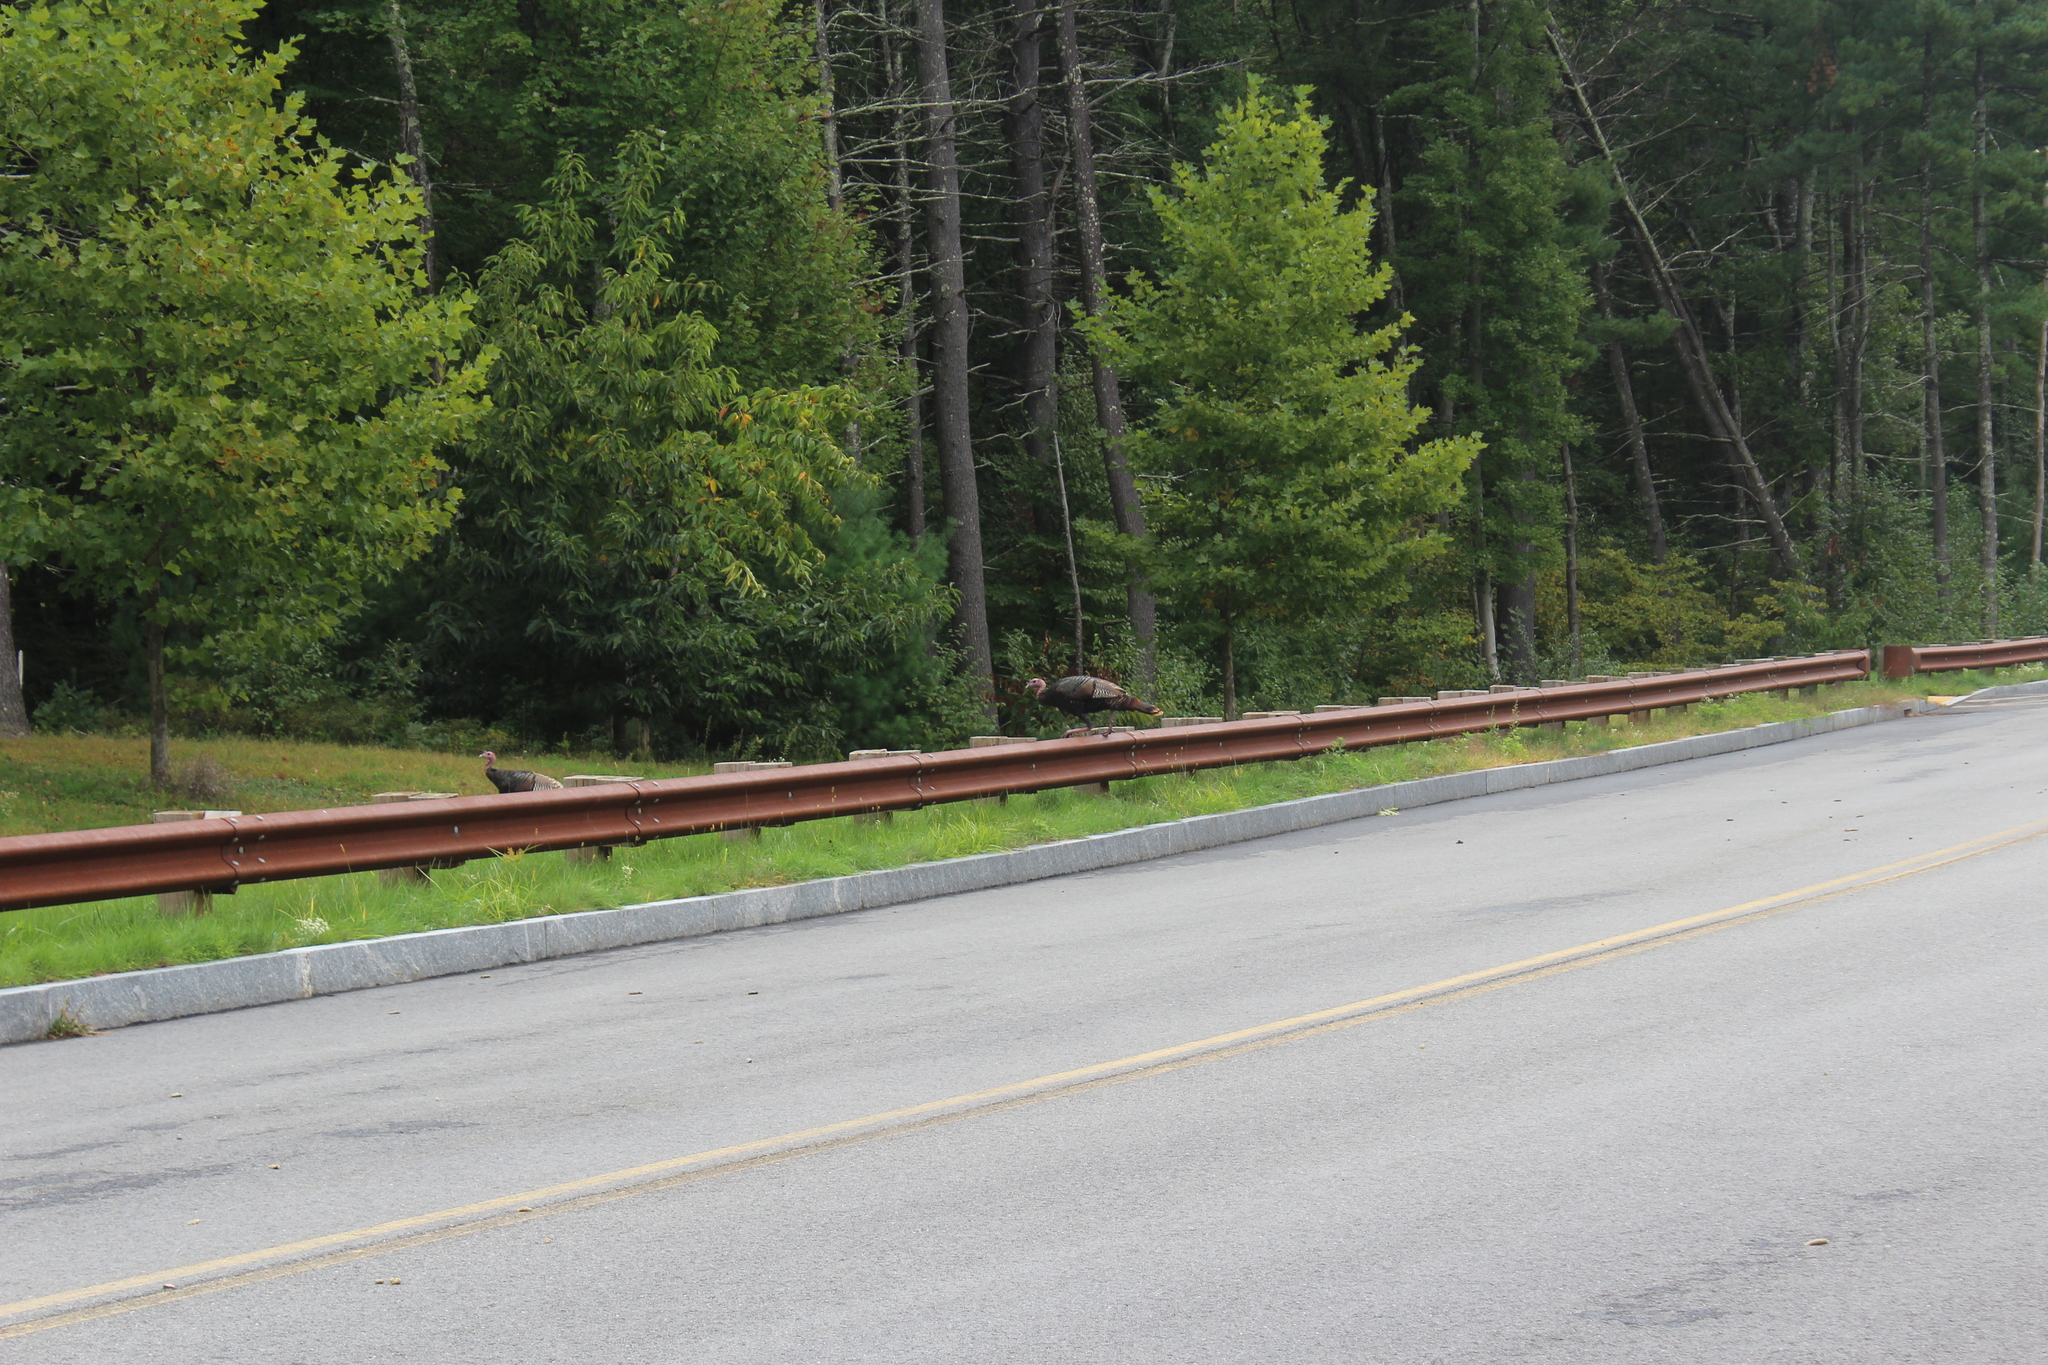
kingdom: Animalia
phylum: Chordata
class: Aves
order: Galliformes
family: Phasianidae
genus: Meleagris
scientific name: Meleagris gallopavo
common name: Wild turkey
